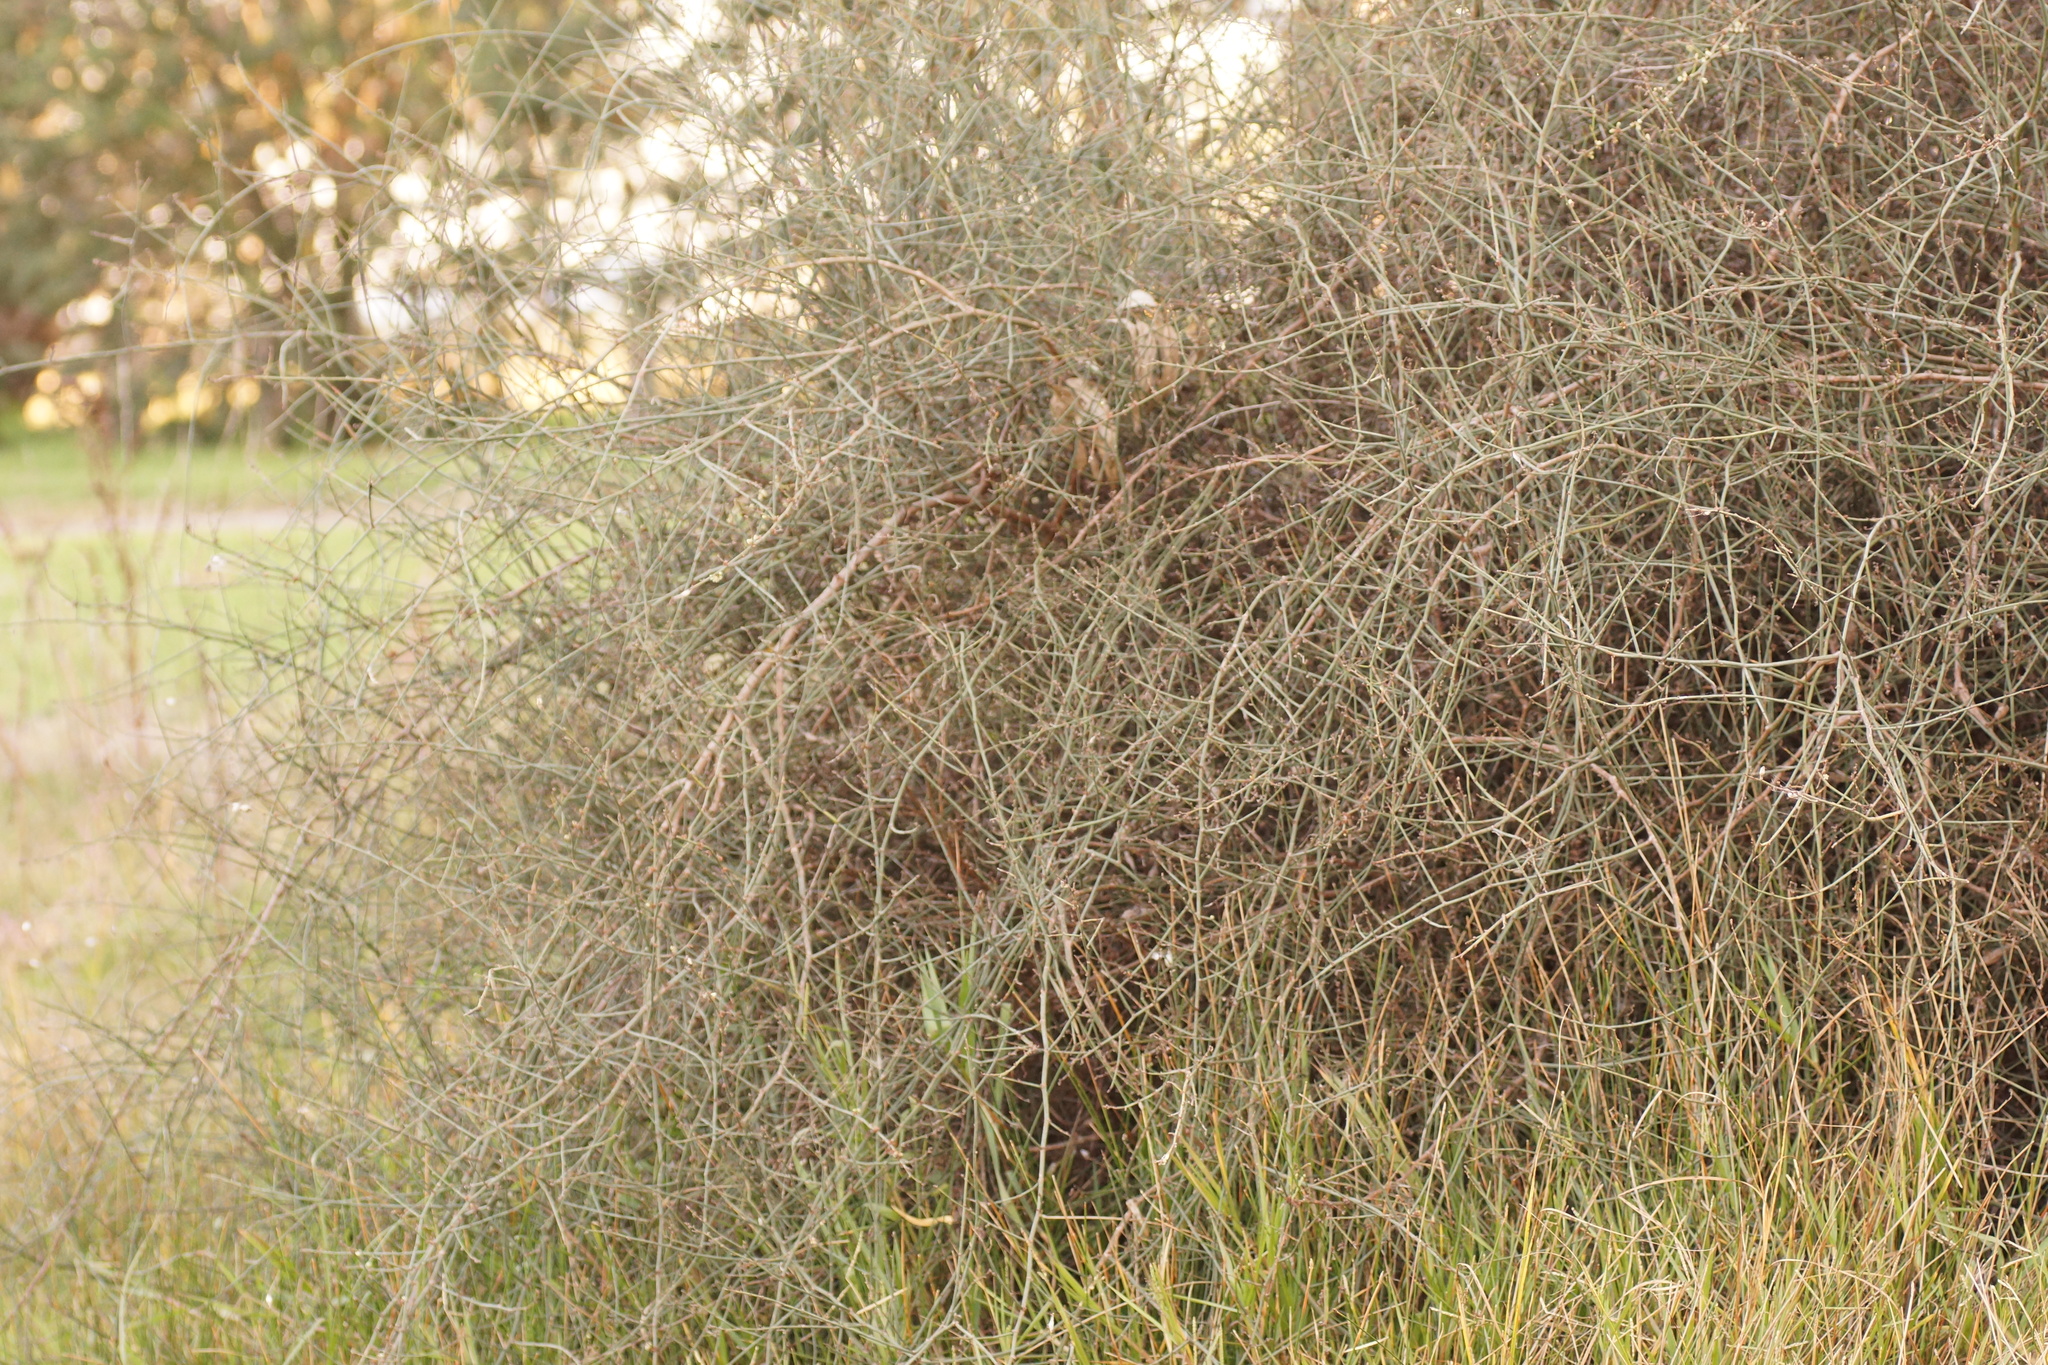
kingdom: Plantae
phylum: Tracheophyta
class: Magnoliopsida
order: Caryophyllales
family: Polygonaceae
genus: Duma
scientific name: Duma florulenta
